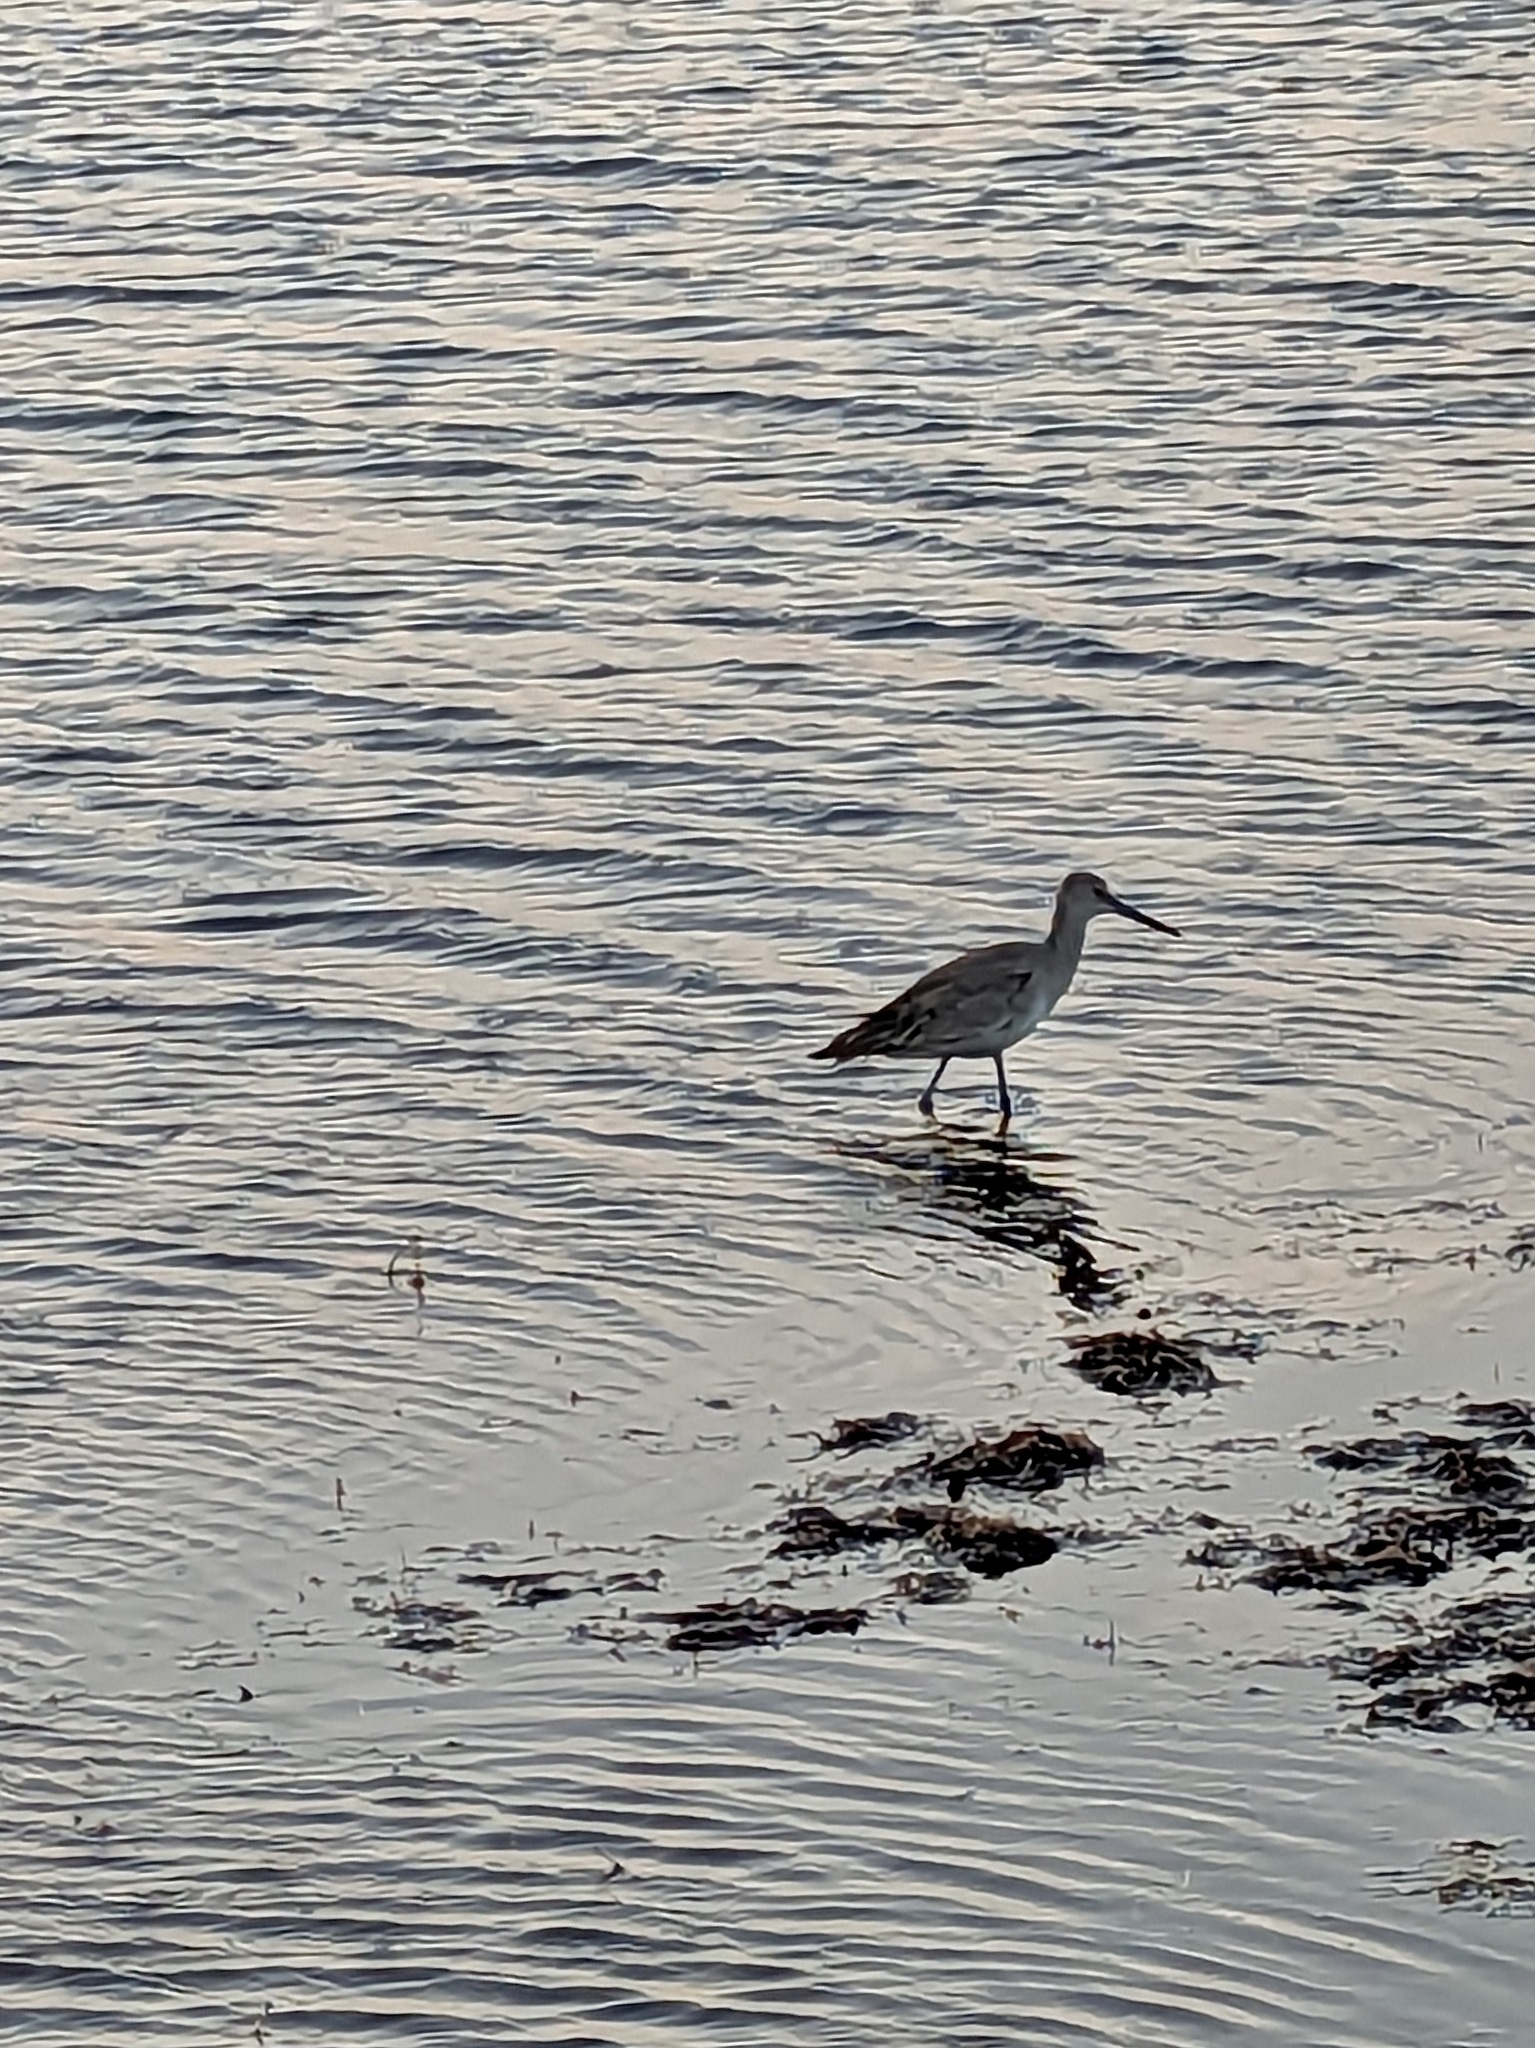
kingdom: Animalia
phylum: Chordata
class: Aves
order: Charadriiformes
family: Scolopacidae
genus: Tringa
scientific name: Tringa semipalmata
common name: Willet
